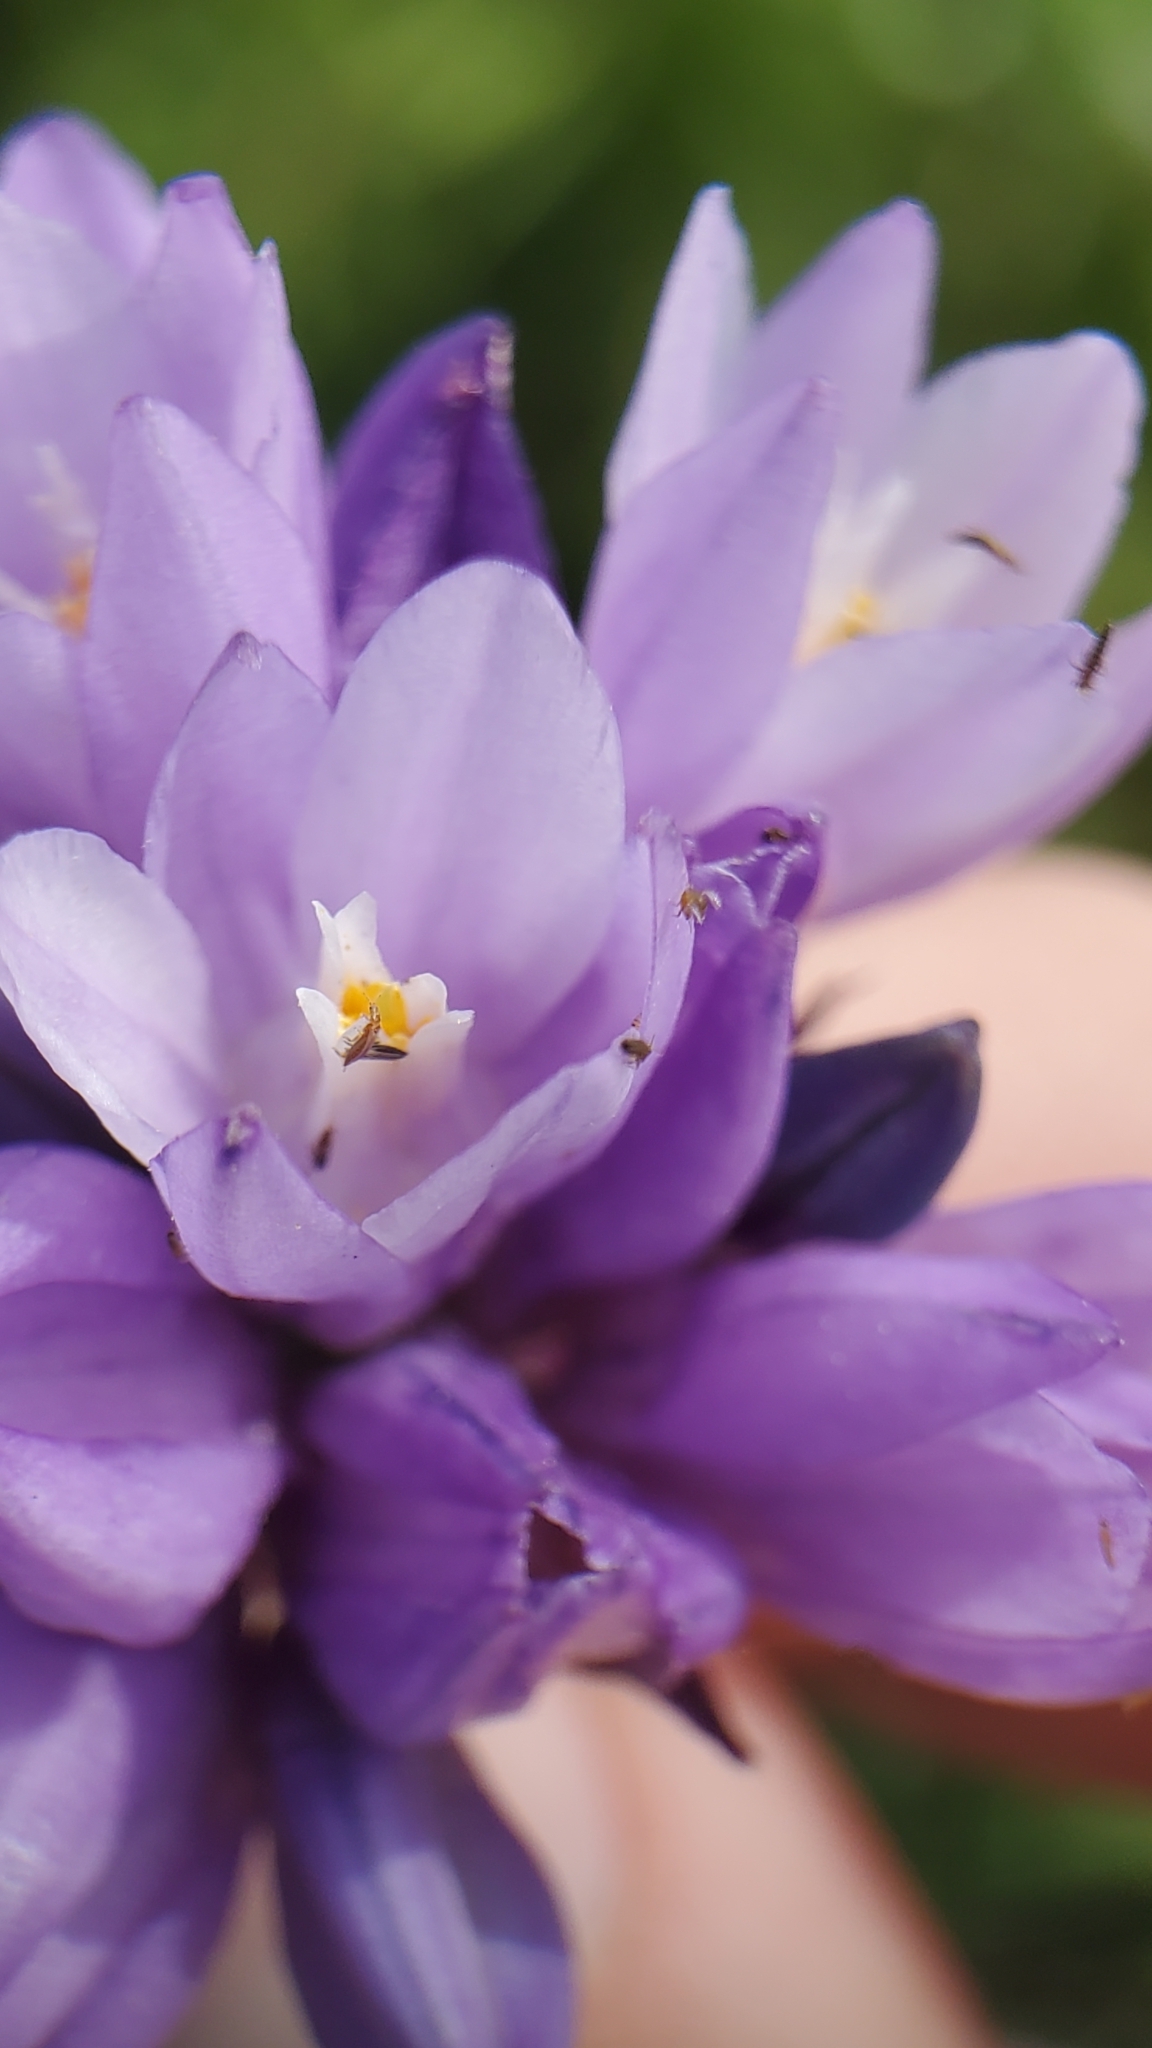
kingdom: Plantae
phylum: Tracheophyta
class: Liliopsida
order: Asparagales
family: Asparagaceae
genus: Dipterostemon
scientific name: Dipterostemon capitatus
